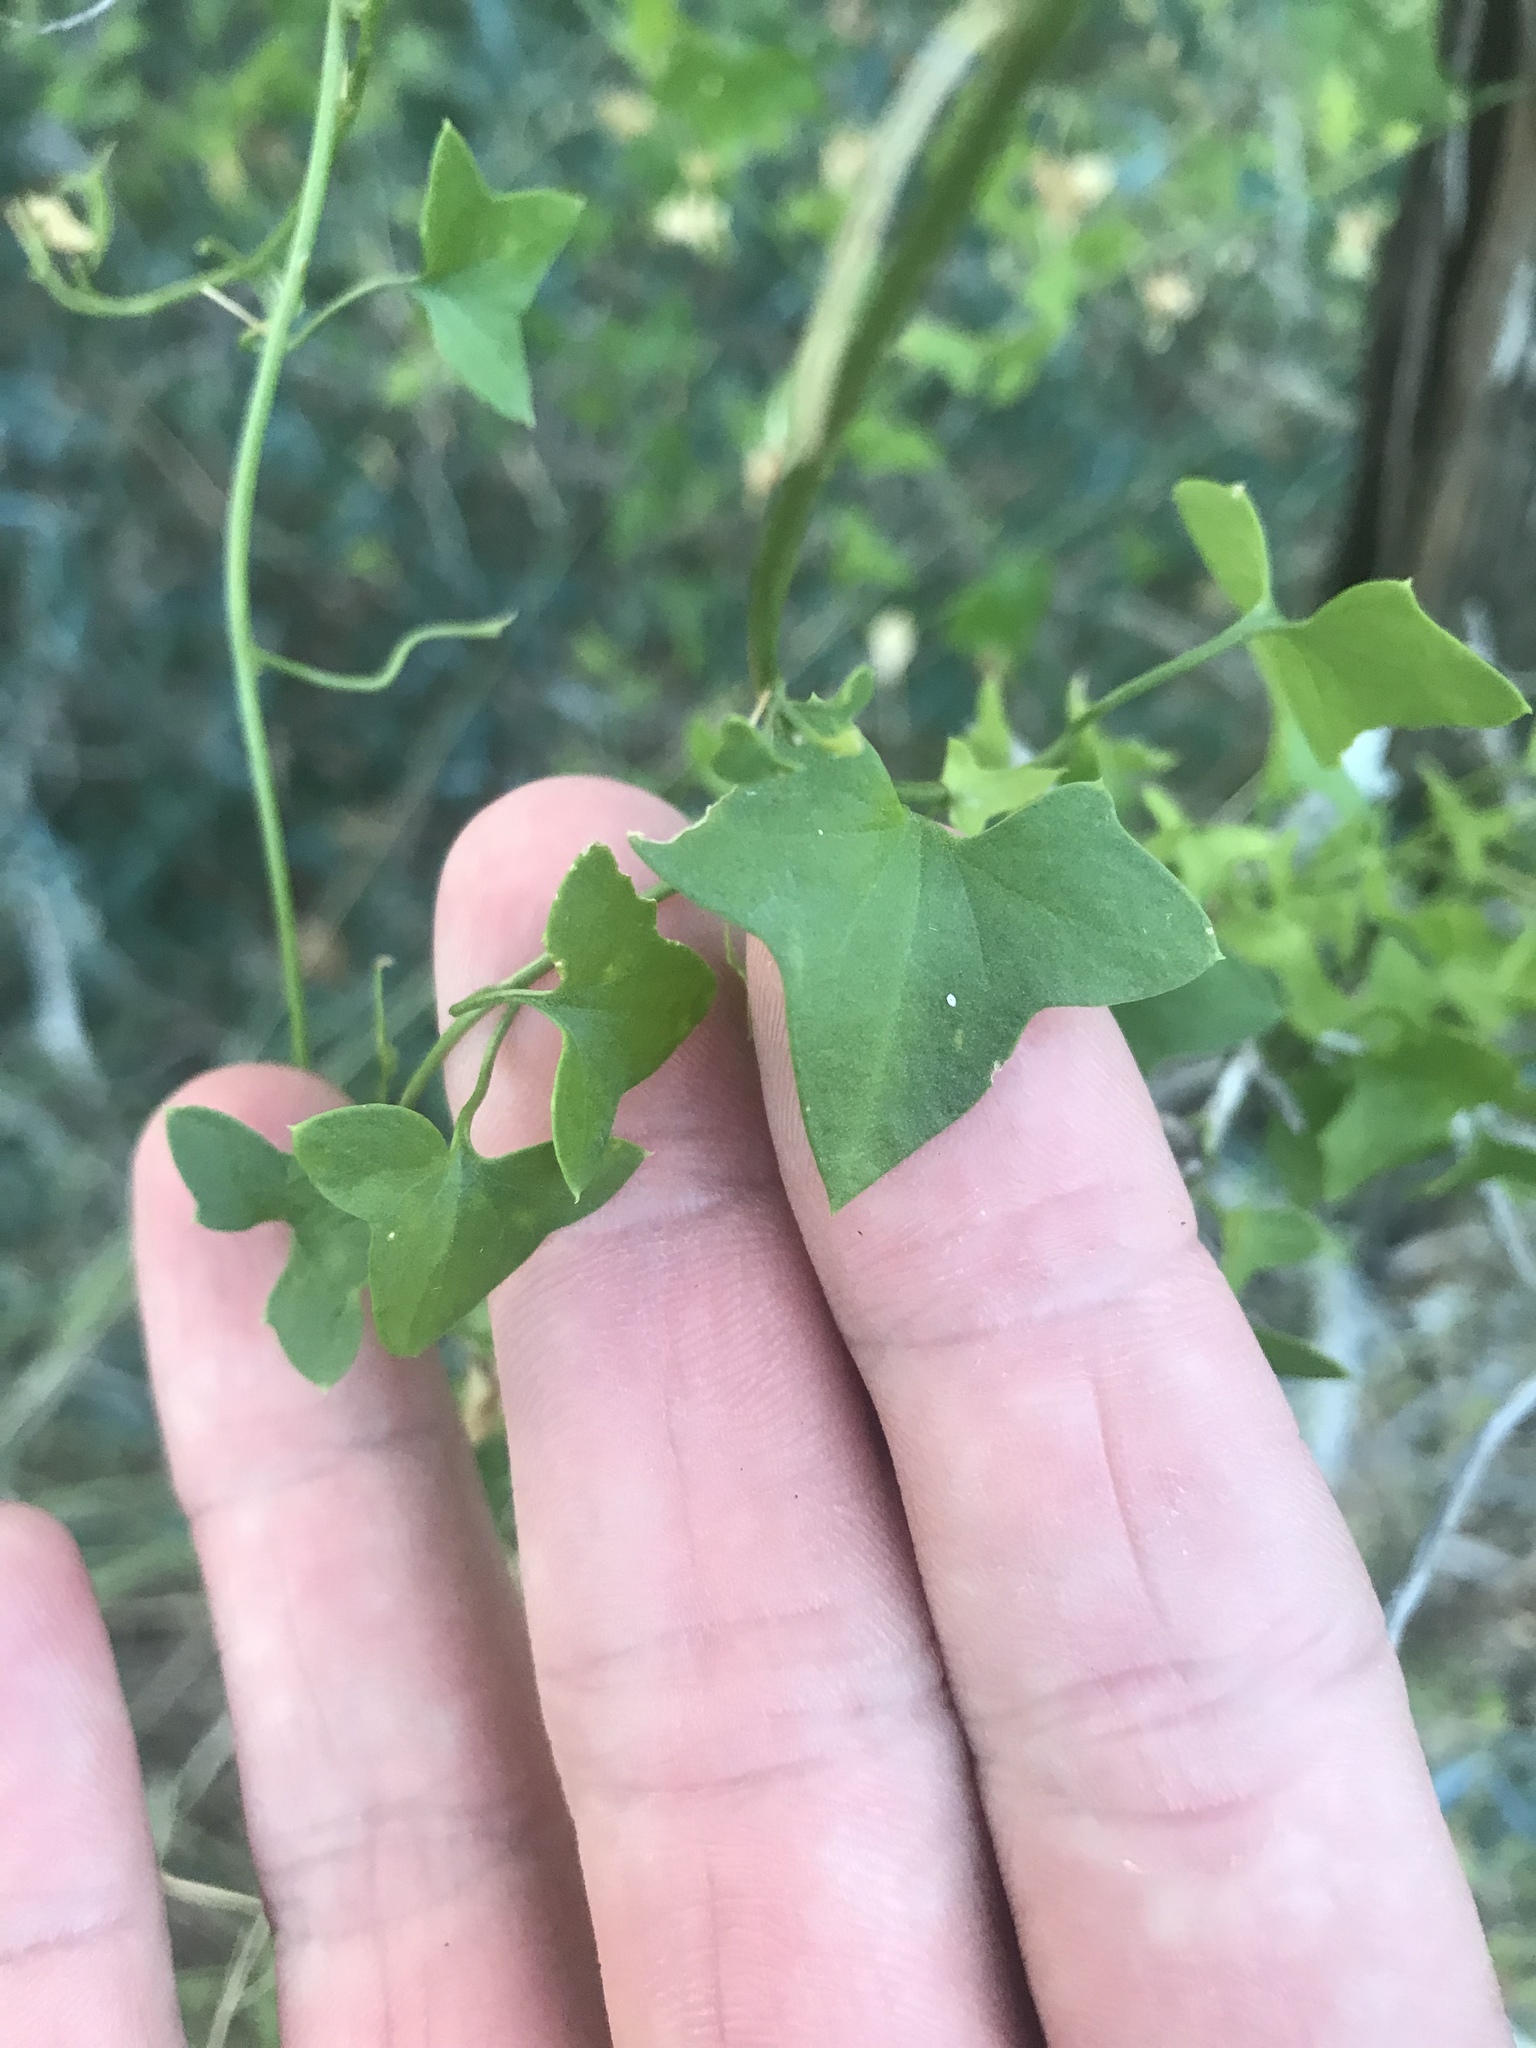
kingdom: Plantae
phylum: Tracheophyta
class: Magnoliopsida
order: Lamiales
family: Plantaginaceae
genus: Maurandella
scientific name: Maurandella antirrhiniflora
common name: Violet twining-snapdragon
